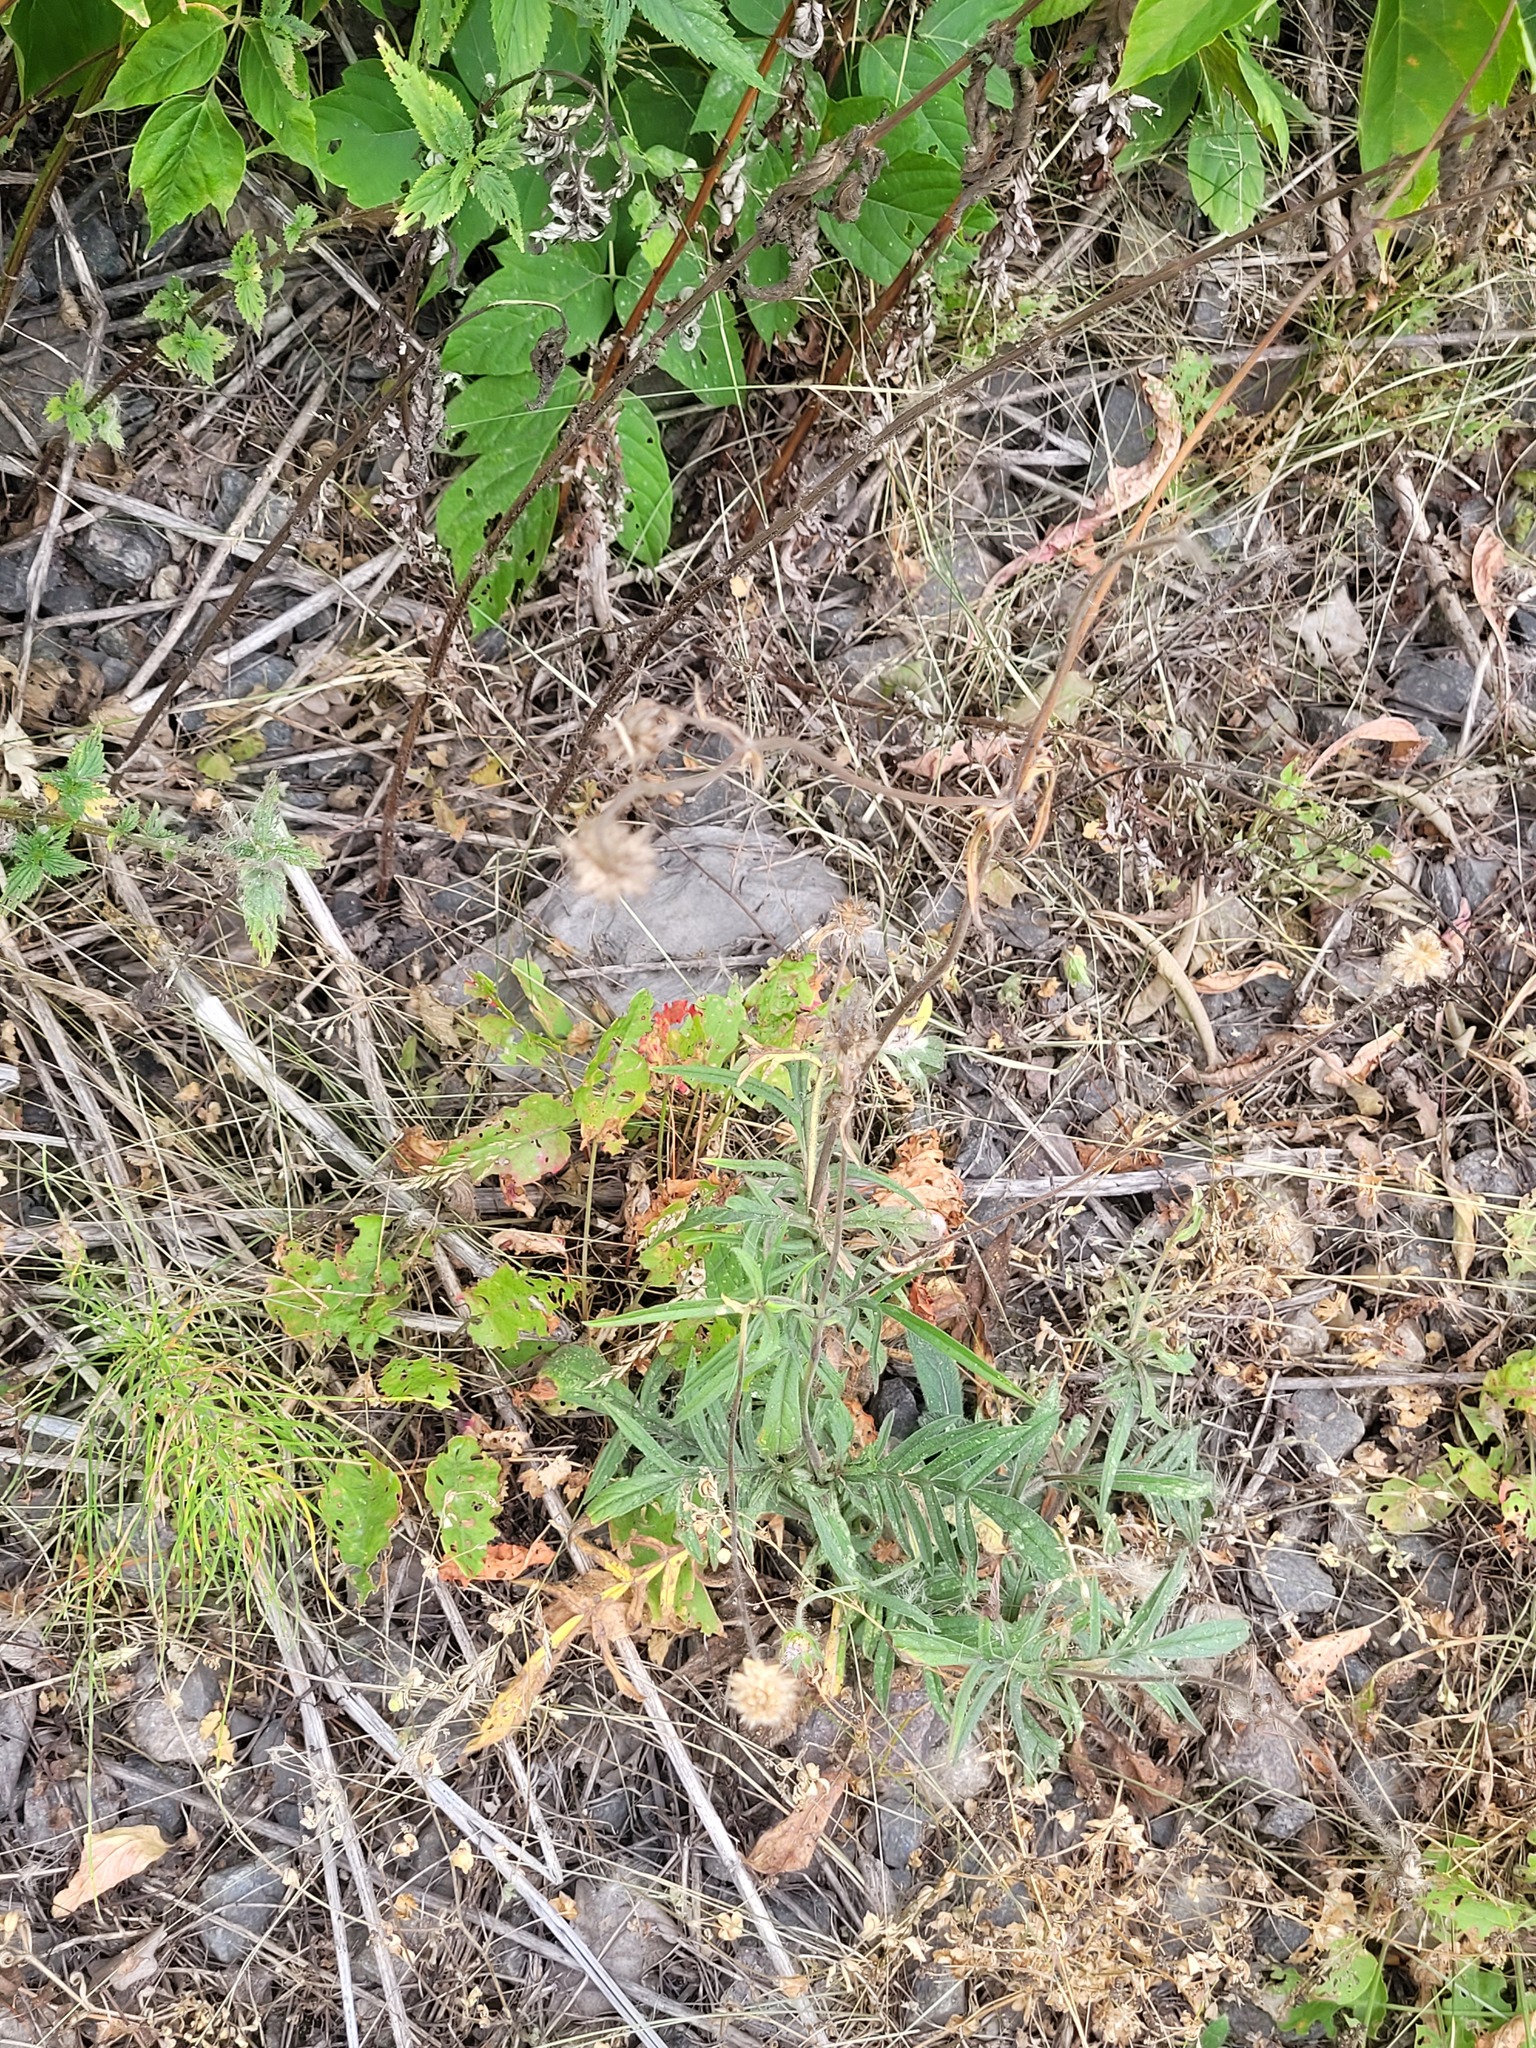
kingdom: Plantae
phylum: Tracheophyta
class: Magnoliopsida
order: Dipsacales
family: Caprifoliaceae
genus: Knautia
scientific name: Knautia arvensis
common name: Field scabiosa
